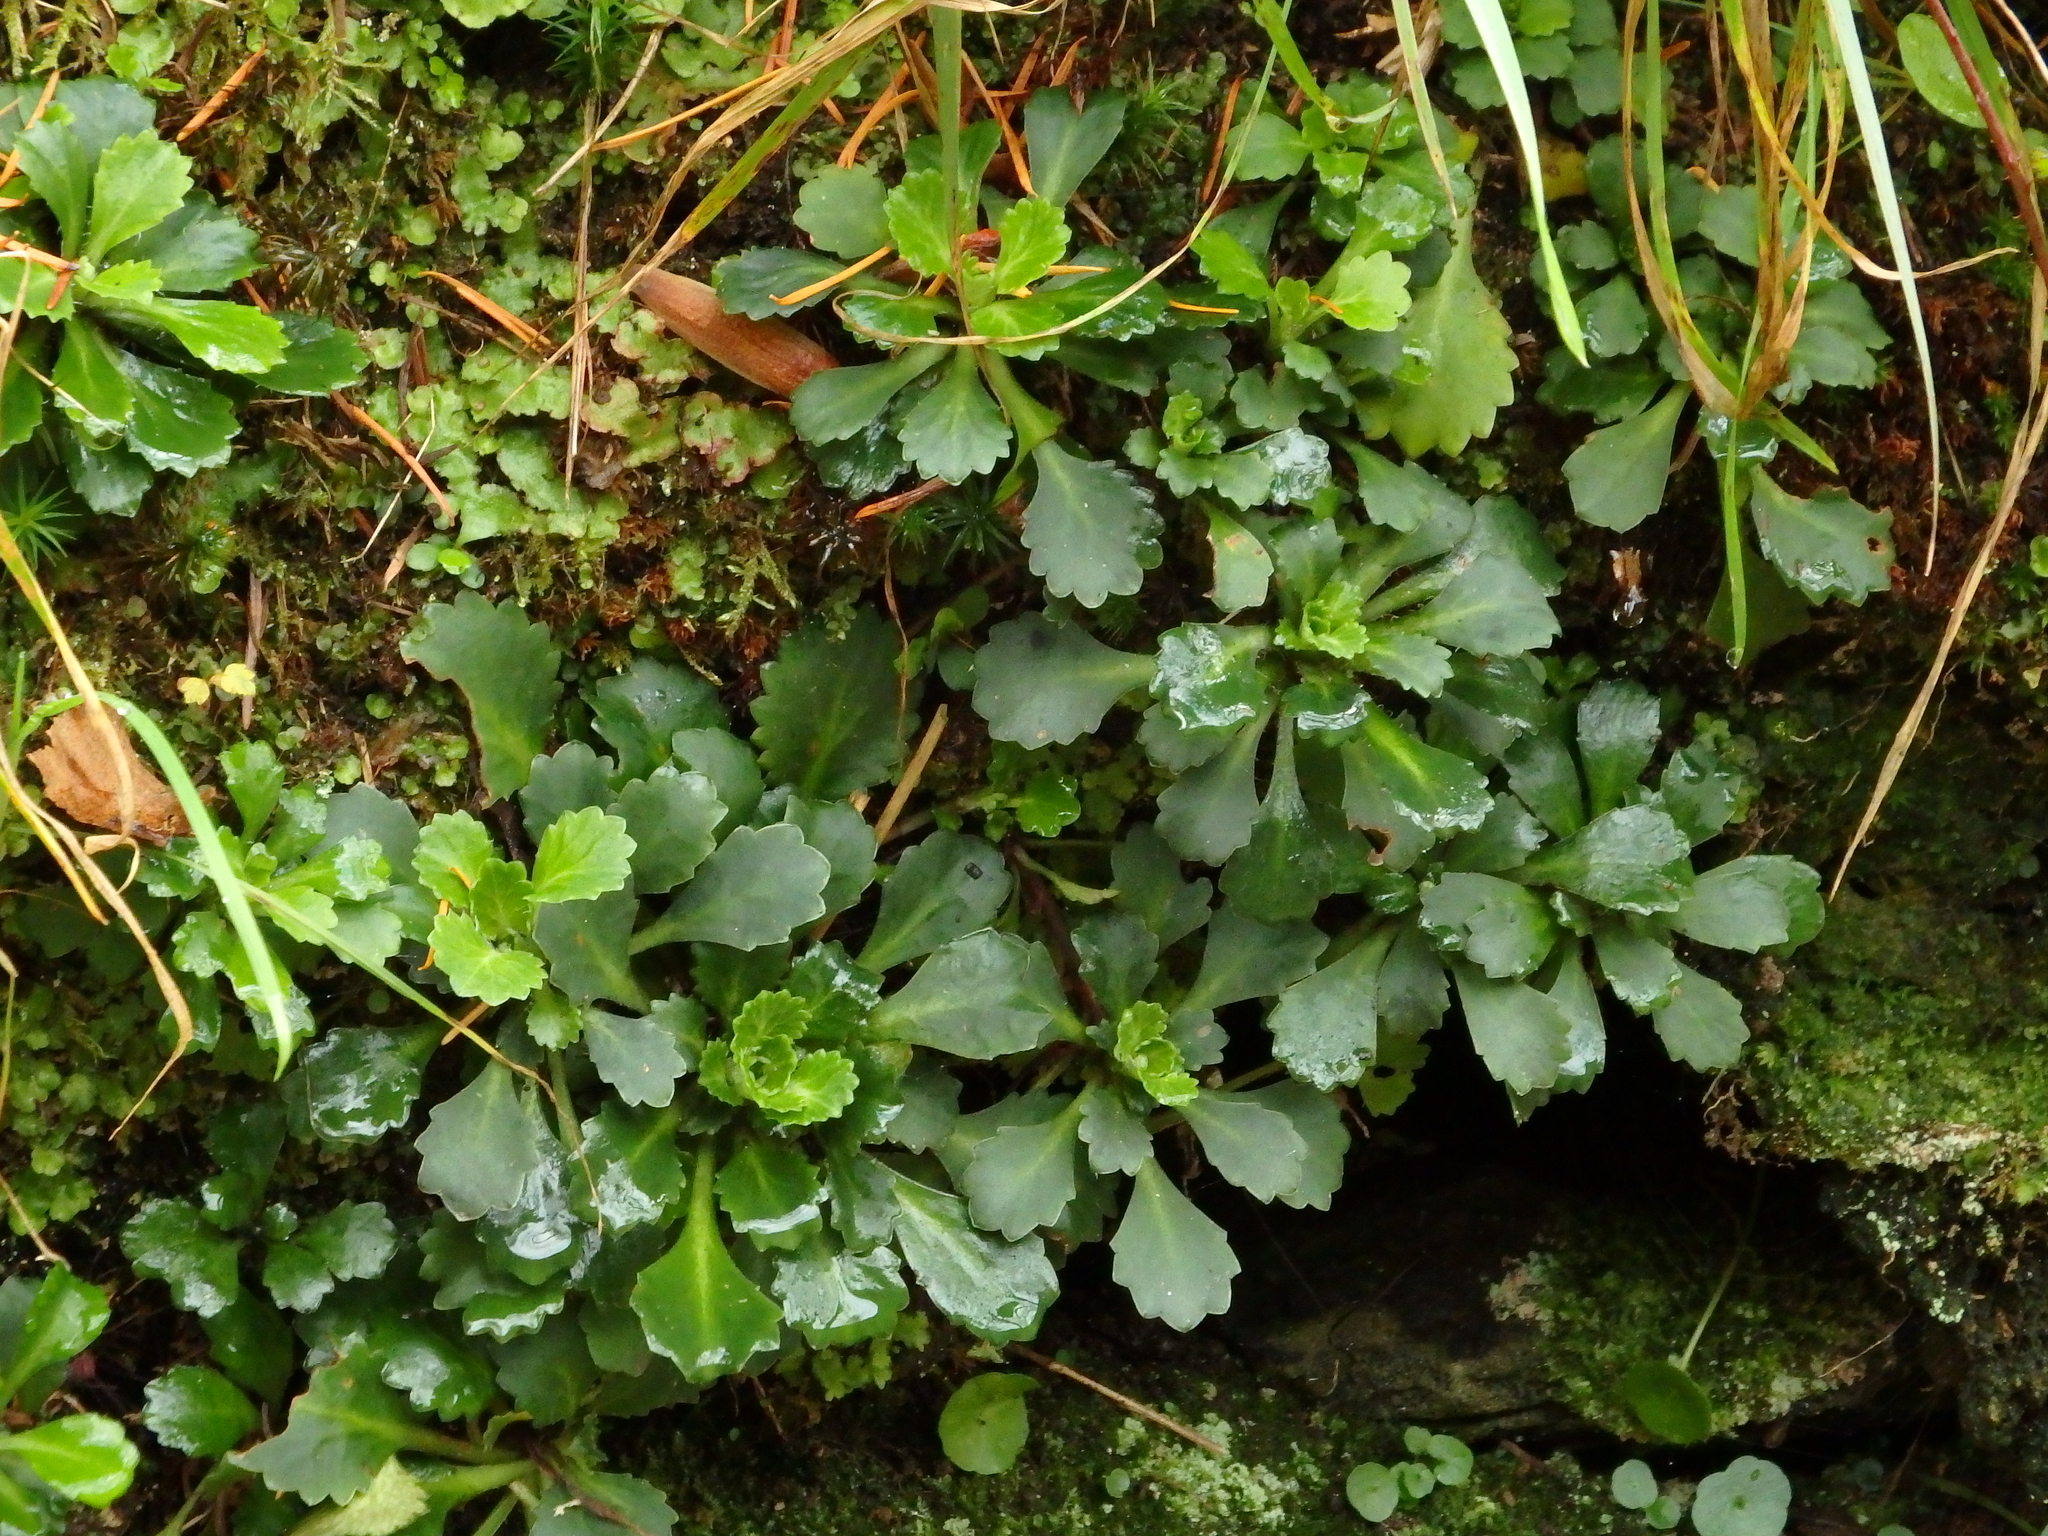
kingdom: Plantae
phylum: Tracheophyta
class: Magnoliopsida
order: Saxifragales
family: Saxifragaceae
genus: Saxifraga
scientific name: Saxifraga spathularis
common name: St patrick's-cabbage
